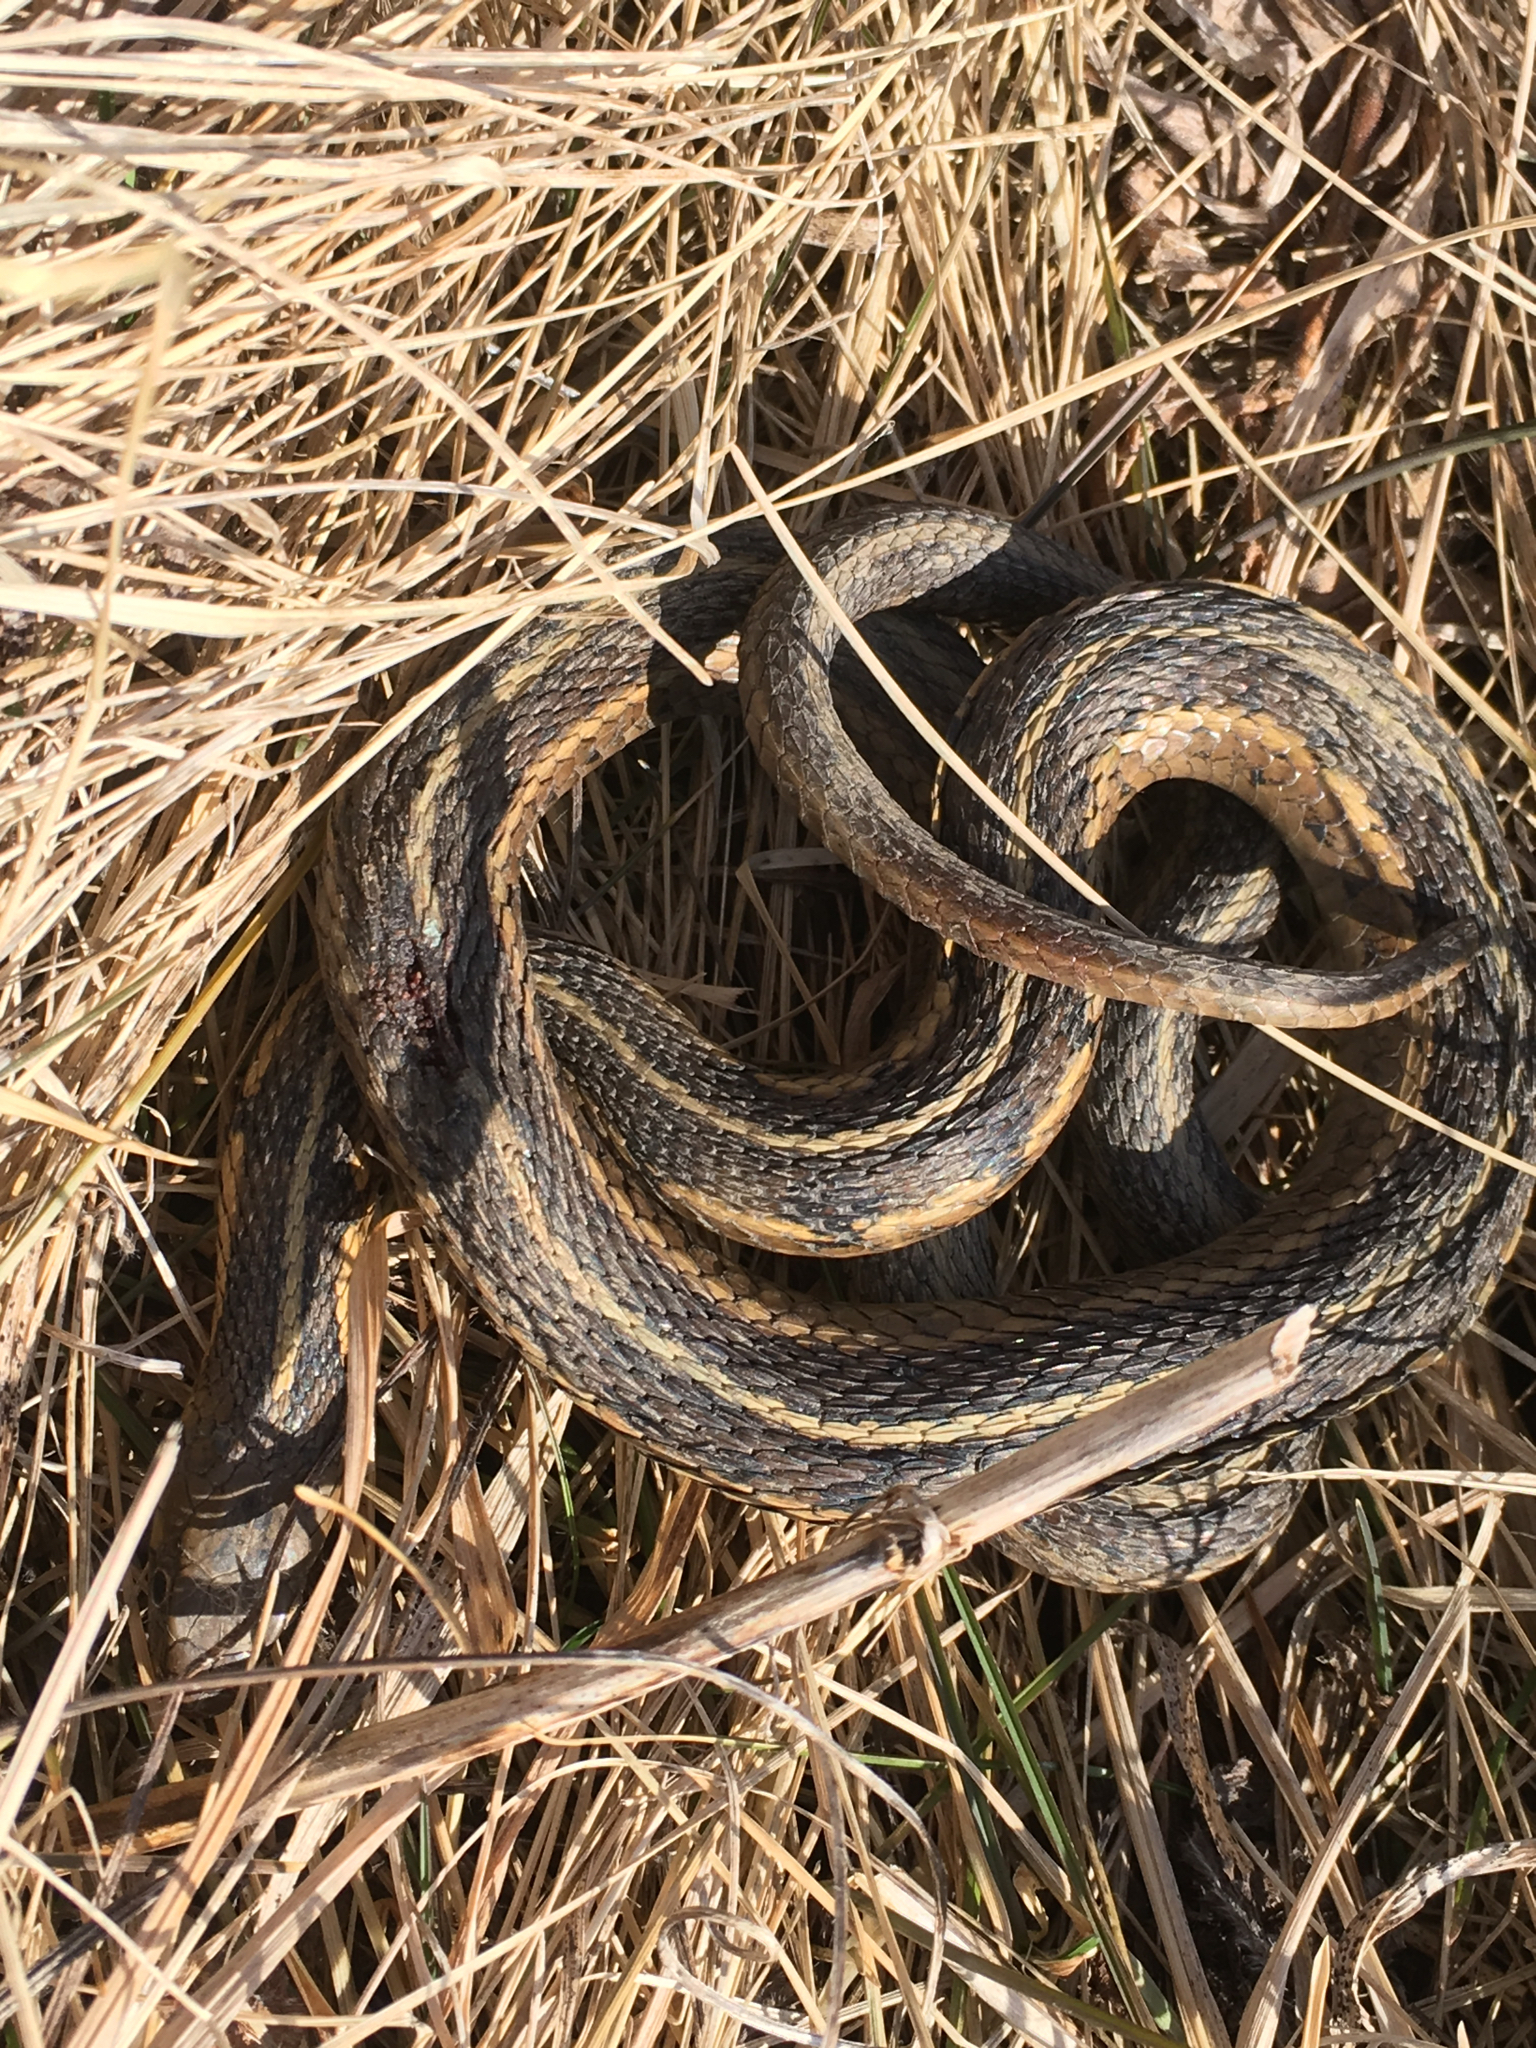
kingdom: Animalia
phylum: Chordata
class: Squamata
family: Colubridae
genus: Thamnophis
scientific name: Thamnophis sirtalis
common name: Common garter snake
